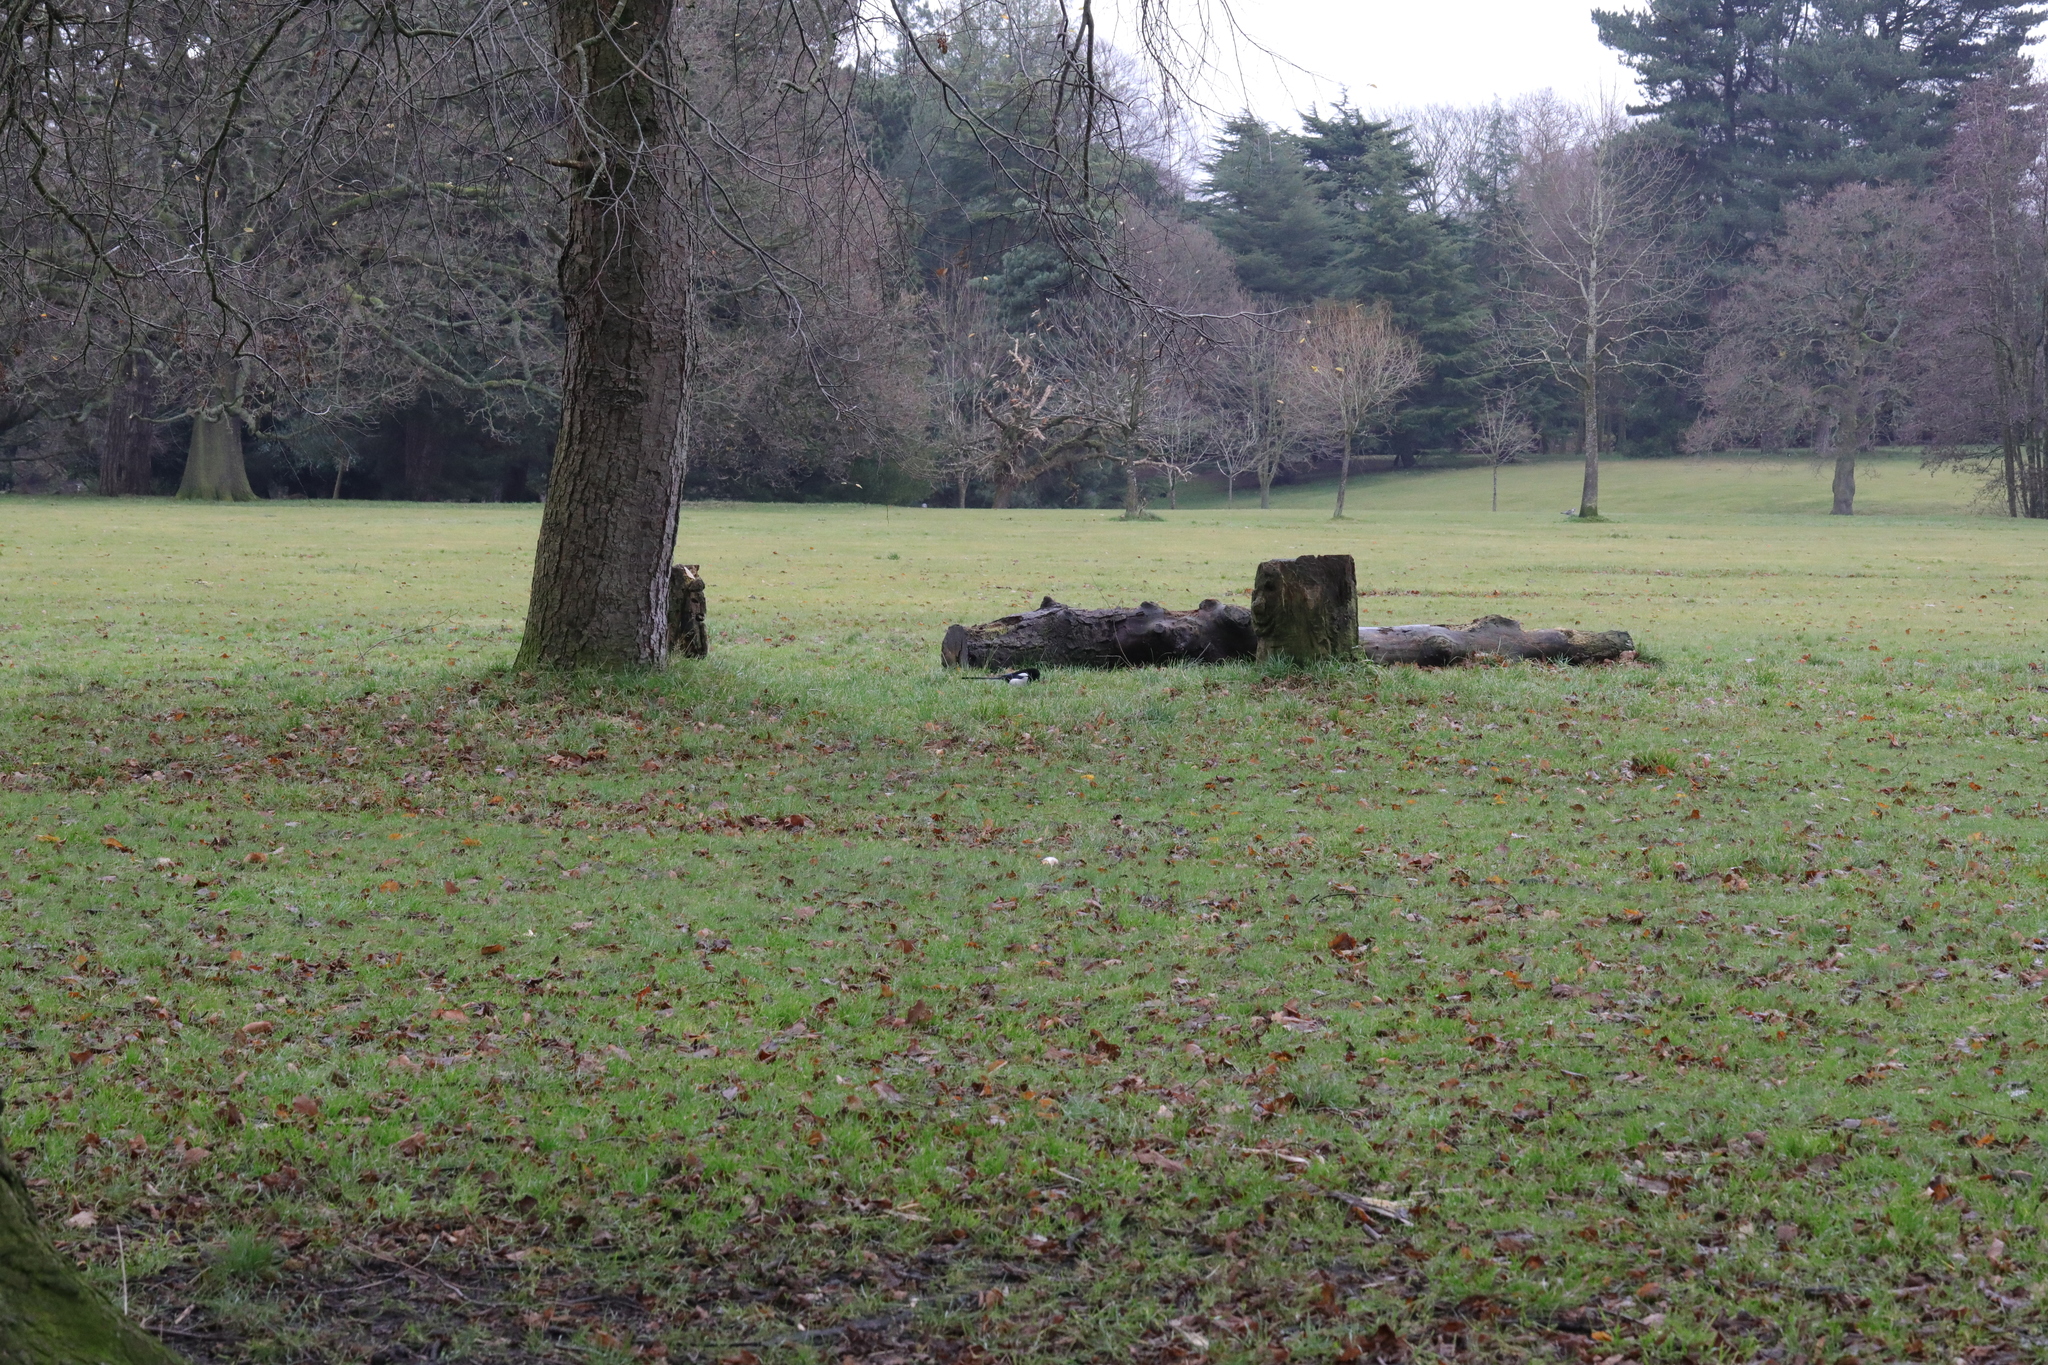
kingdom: Animalia
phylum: Chordata
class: Aves
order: Passeriformes
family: Corvidae
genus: Pica
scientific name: Pica pica
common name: Eurasian magpie
